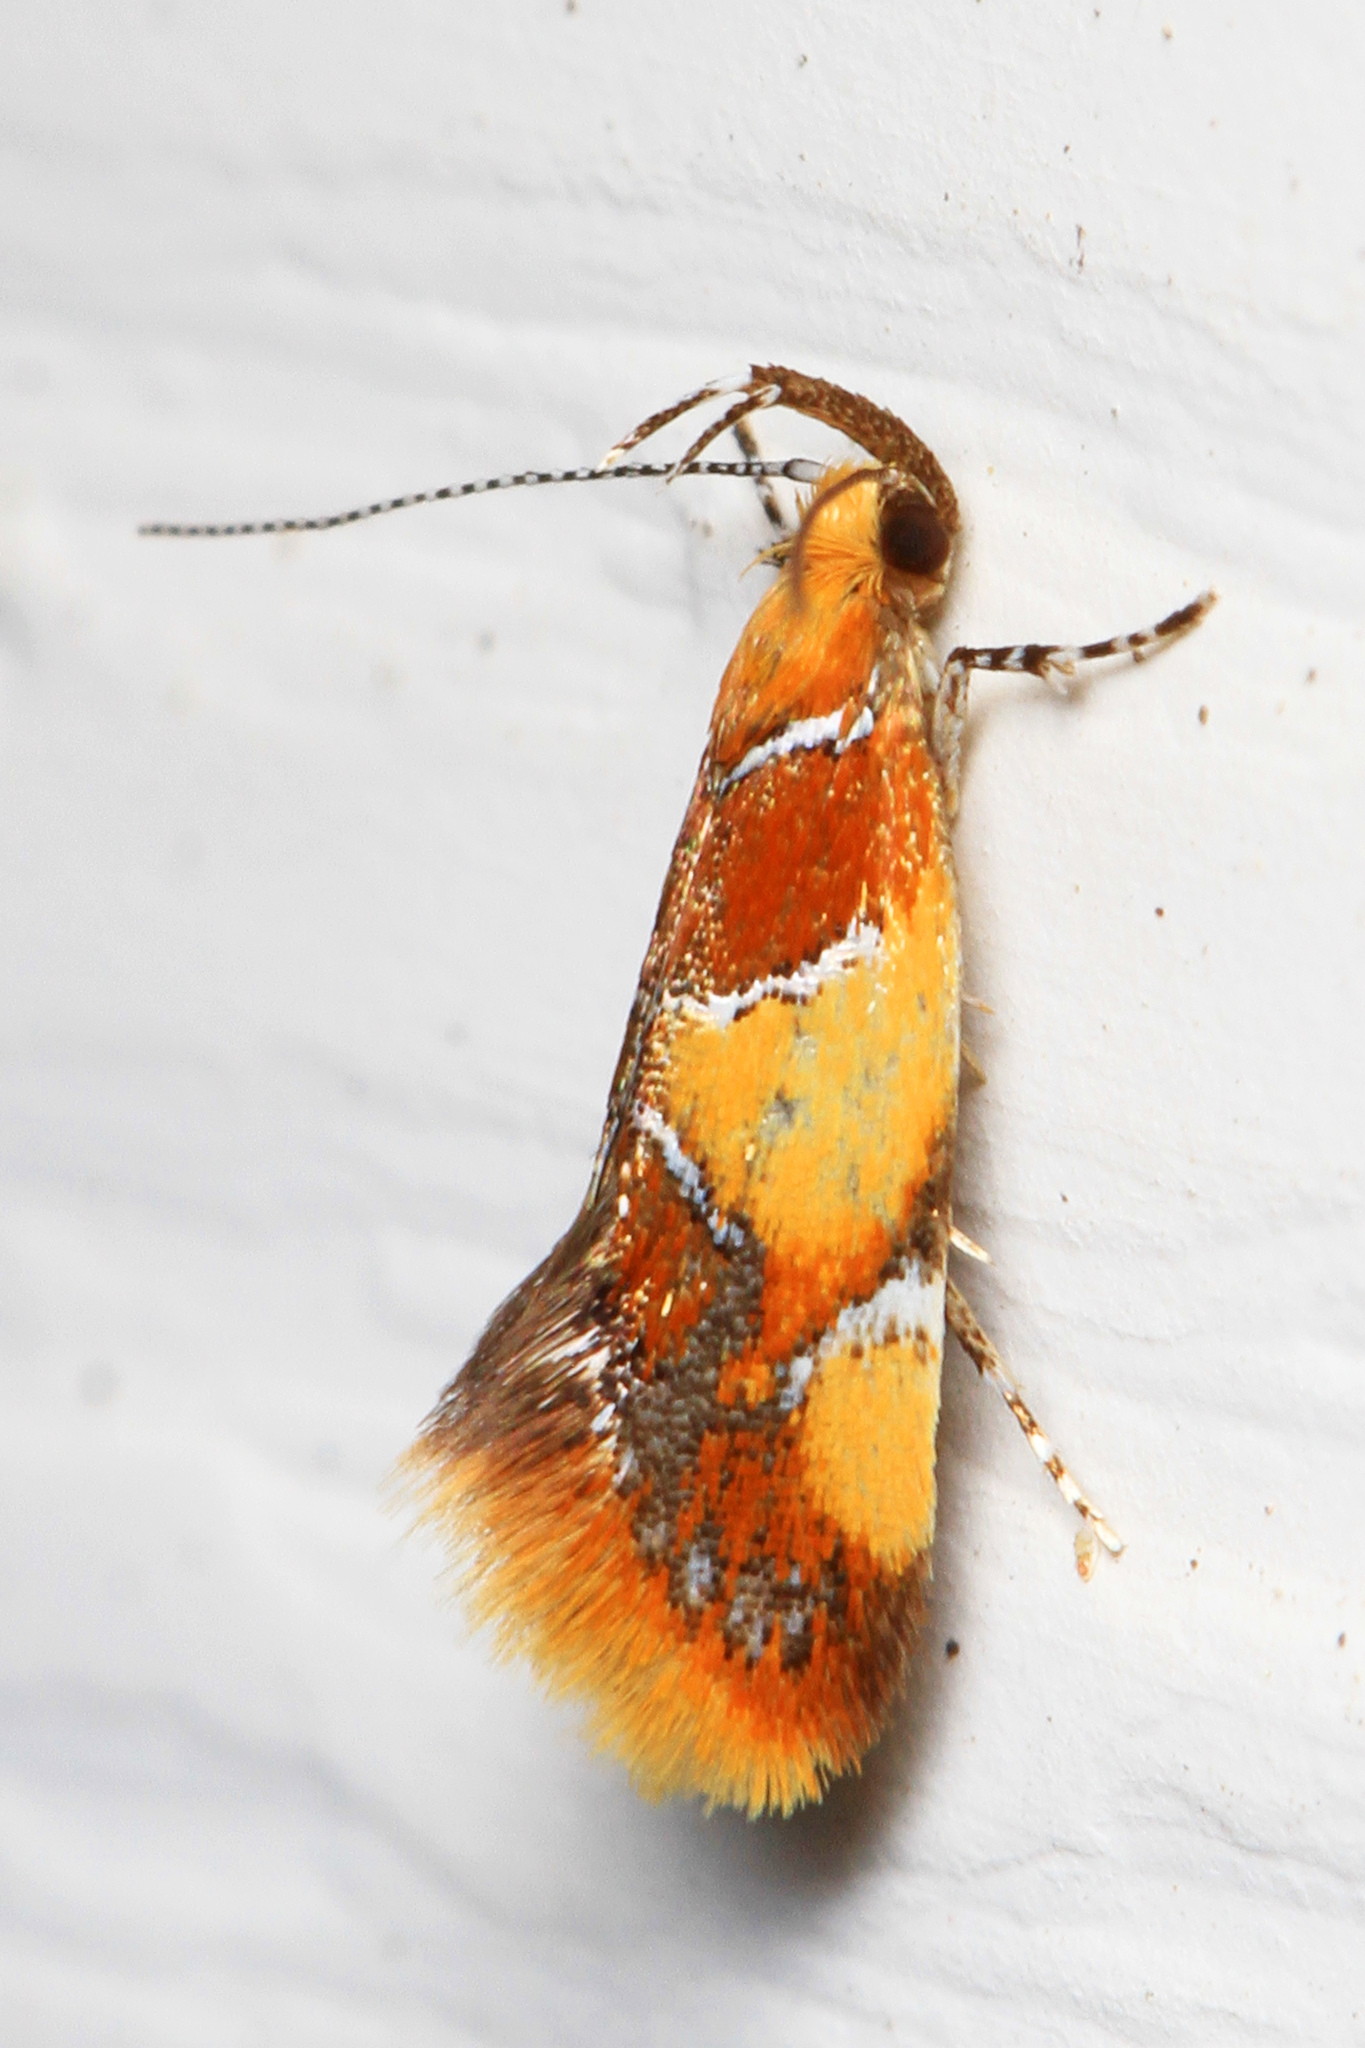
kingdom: Animalia
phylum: Arthropoda
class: Insecta
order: Lepidoptera
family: Oecophoridae
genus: Callima
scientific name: Callima argenticinctella
